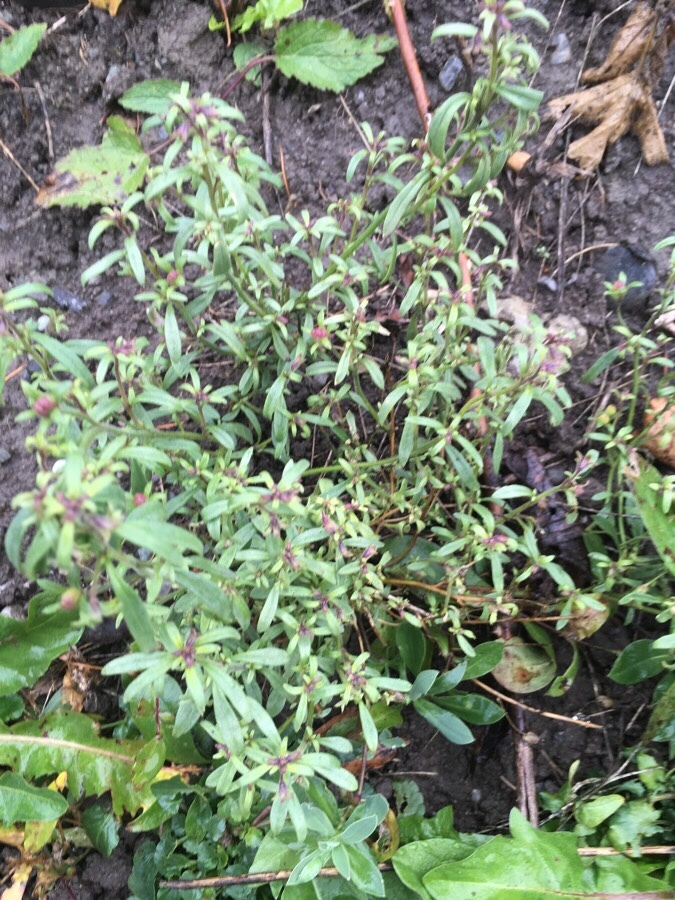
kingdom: Plantae
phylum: Tracheophyta
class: Magnoliopsida
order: Lamiales
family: Plantaginaceae
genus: Chaenorhinum
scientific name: Chaenorhinum minus
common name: Dwarf snapdragon
